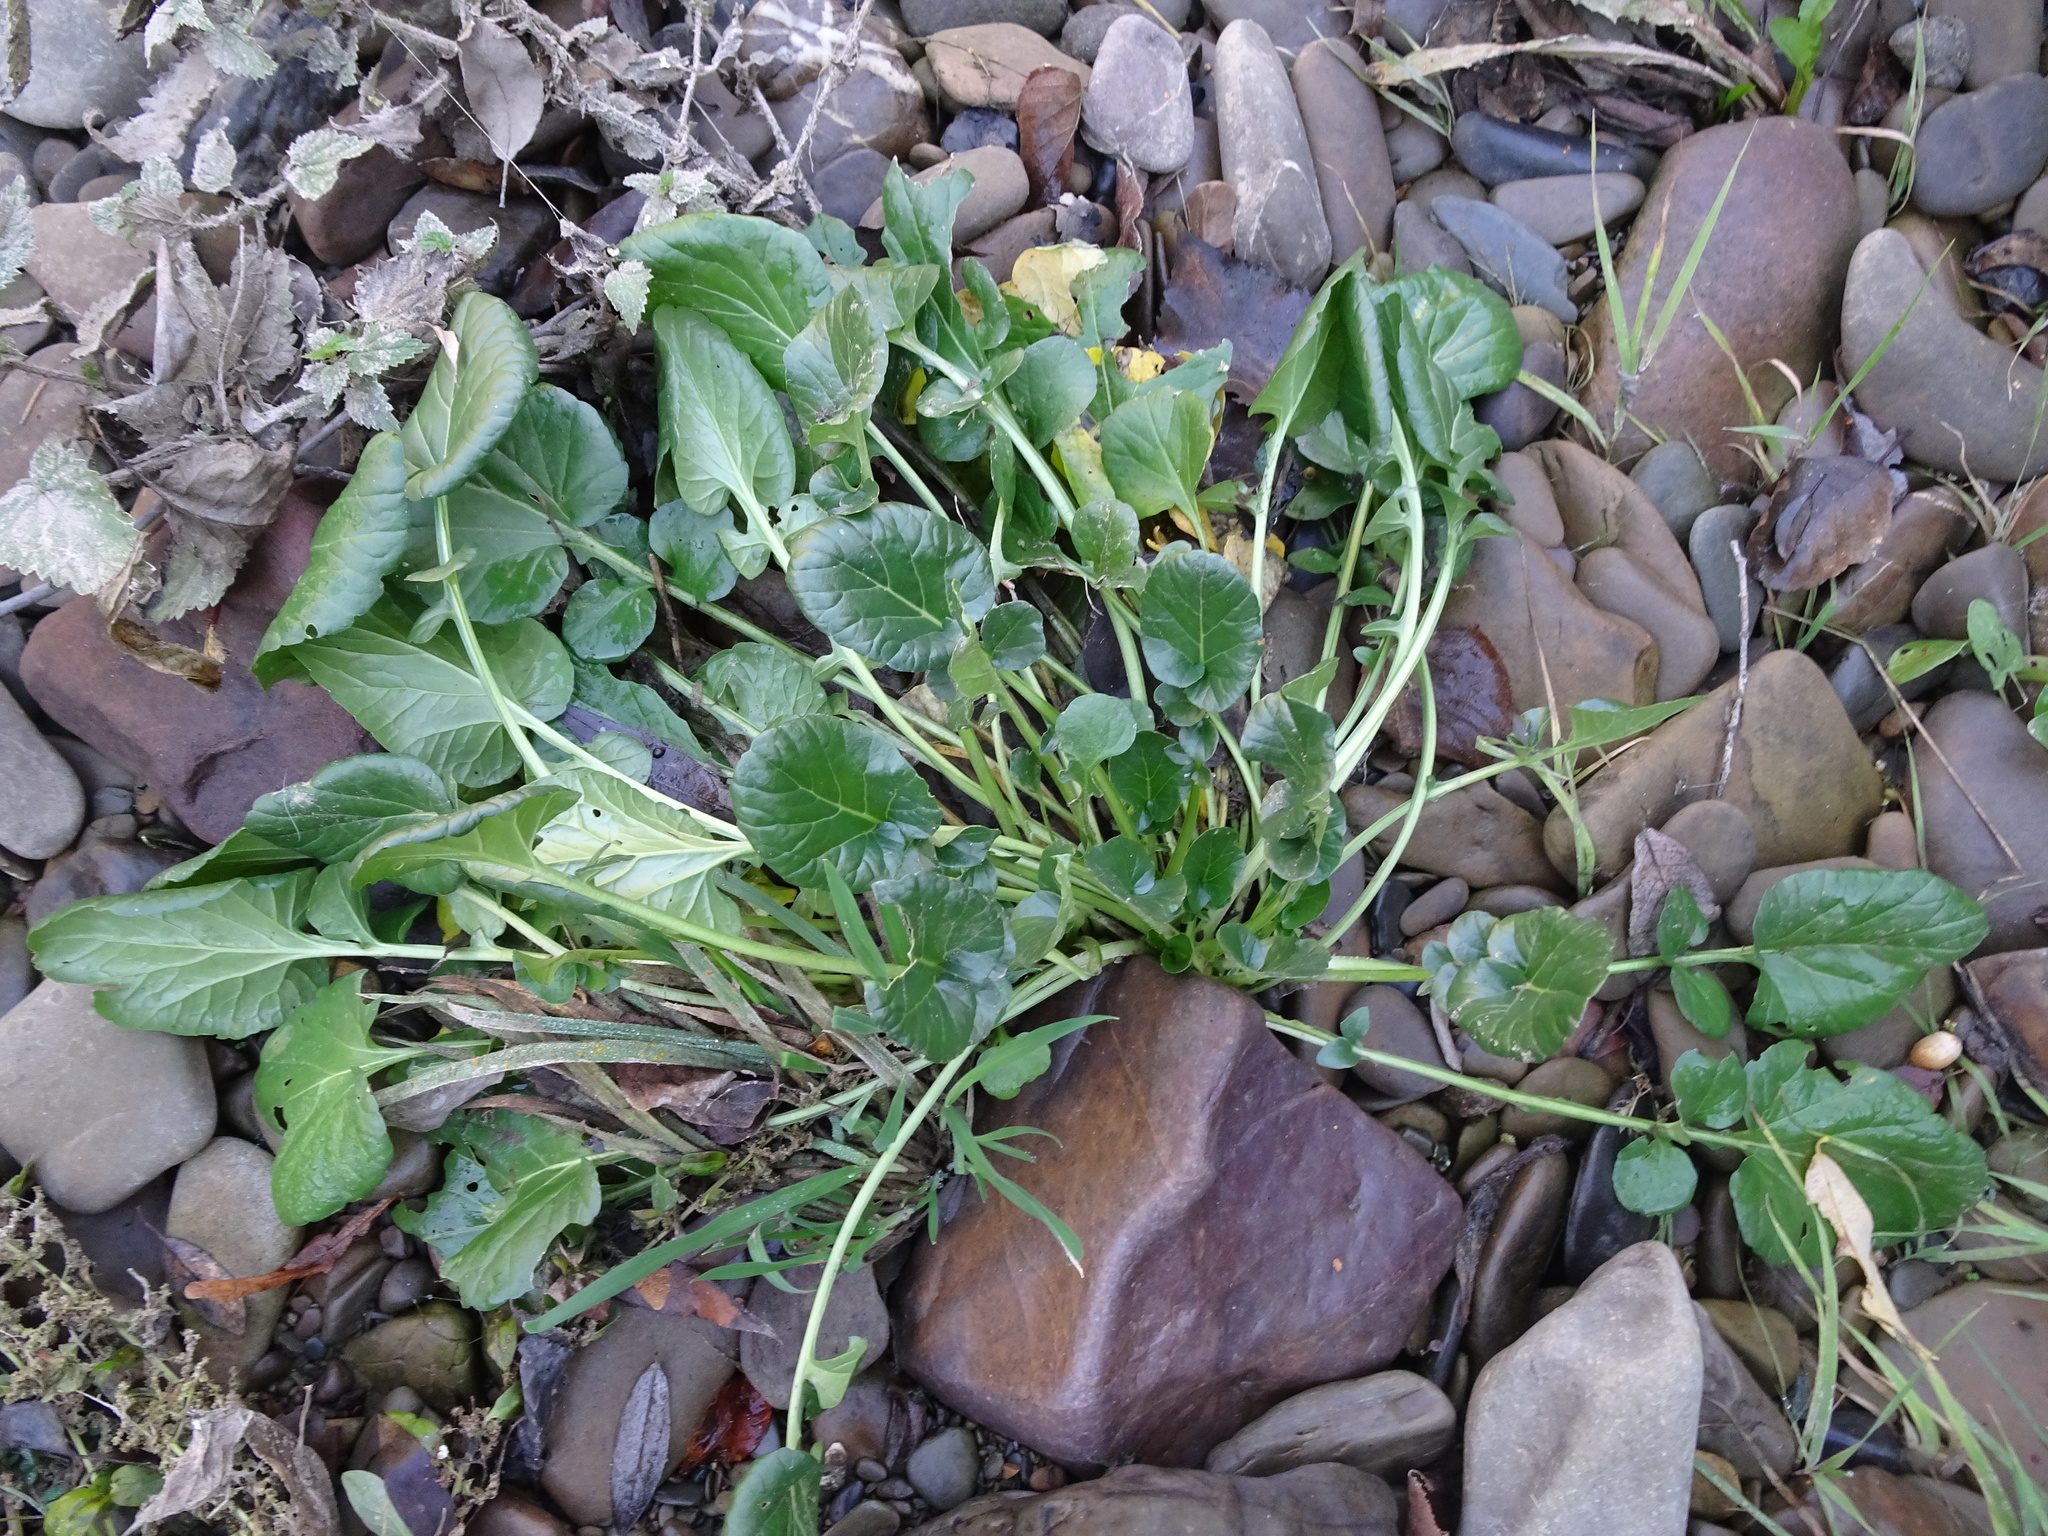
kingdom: Plantae
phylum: Tracheophyta
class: Magnoliopsida
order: Brassicales
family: Brassicaceae
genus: Barbarea
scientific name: Barbarea vulgaris
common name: Cressy-greens
